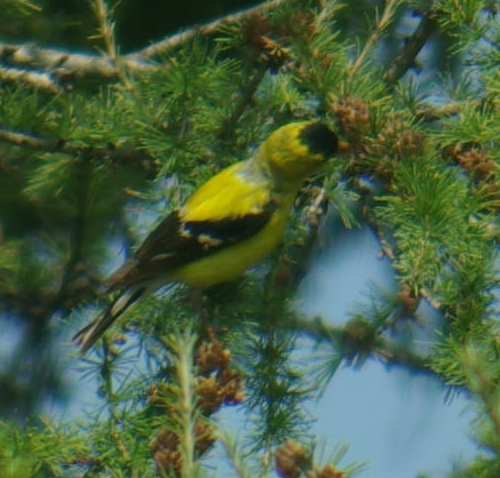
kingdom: Animalia
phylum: Chordata
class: Aves
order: Passeriformes
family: Fringillidae
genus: Spinus
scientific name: Spinus tristis
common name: American goldfinch
